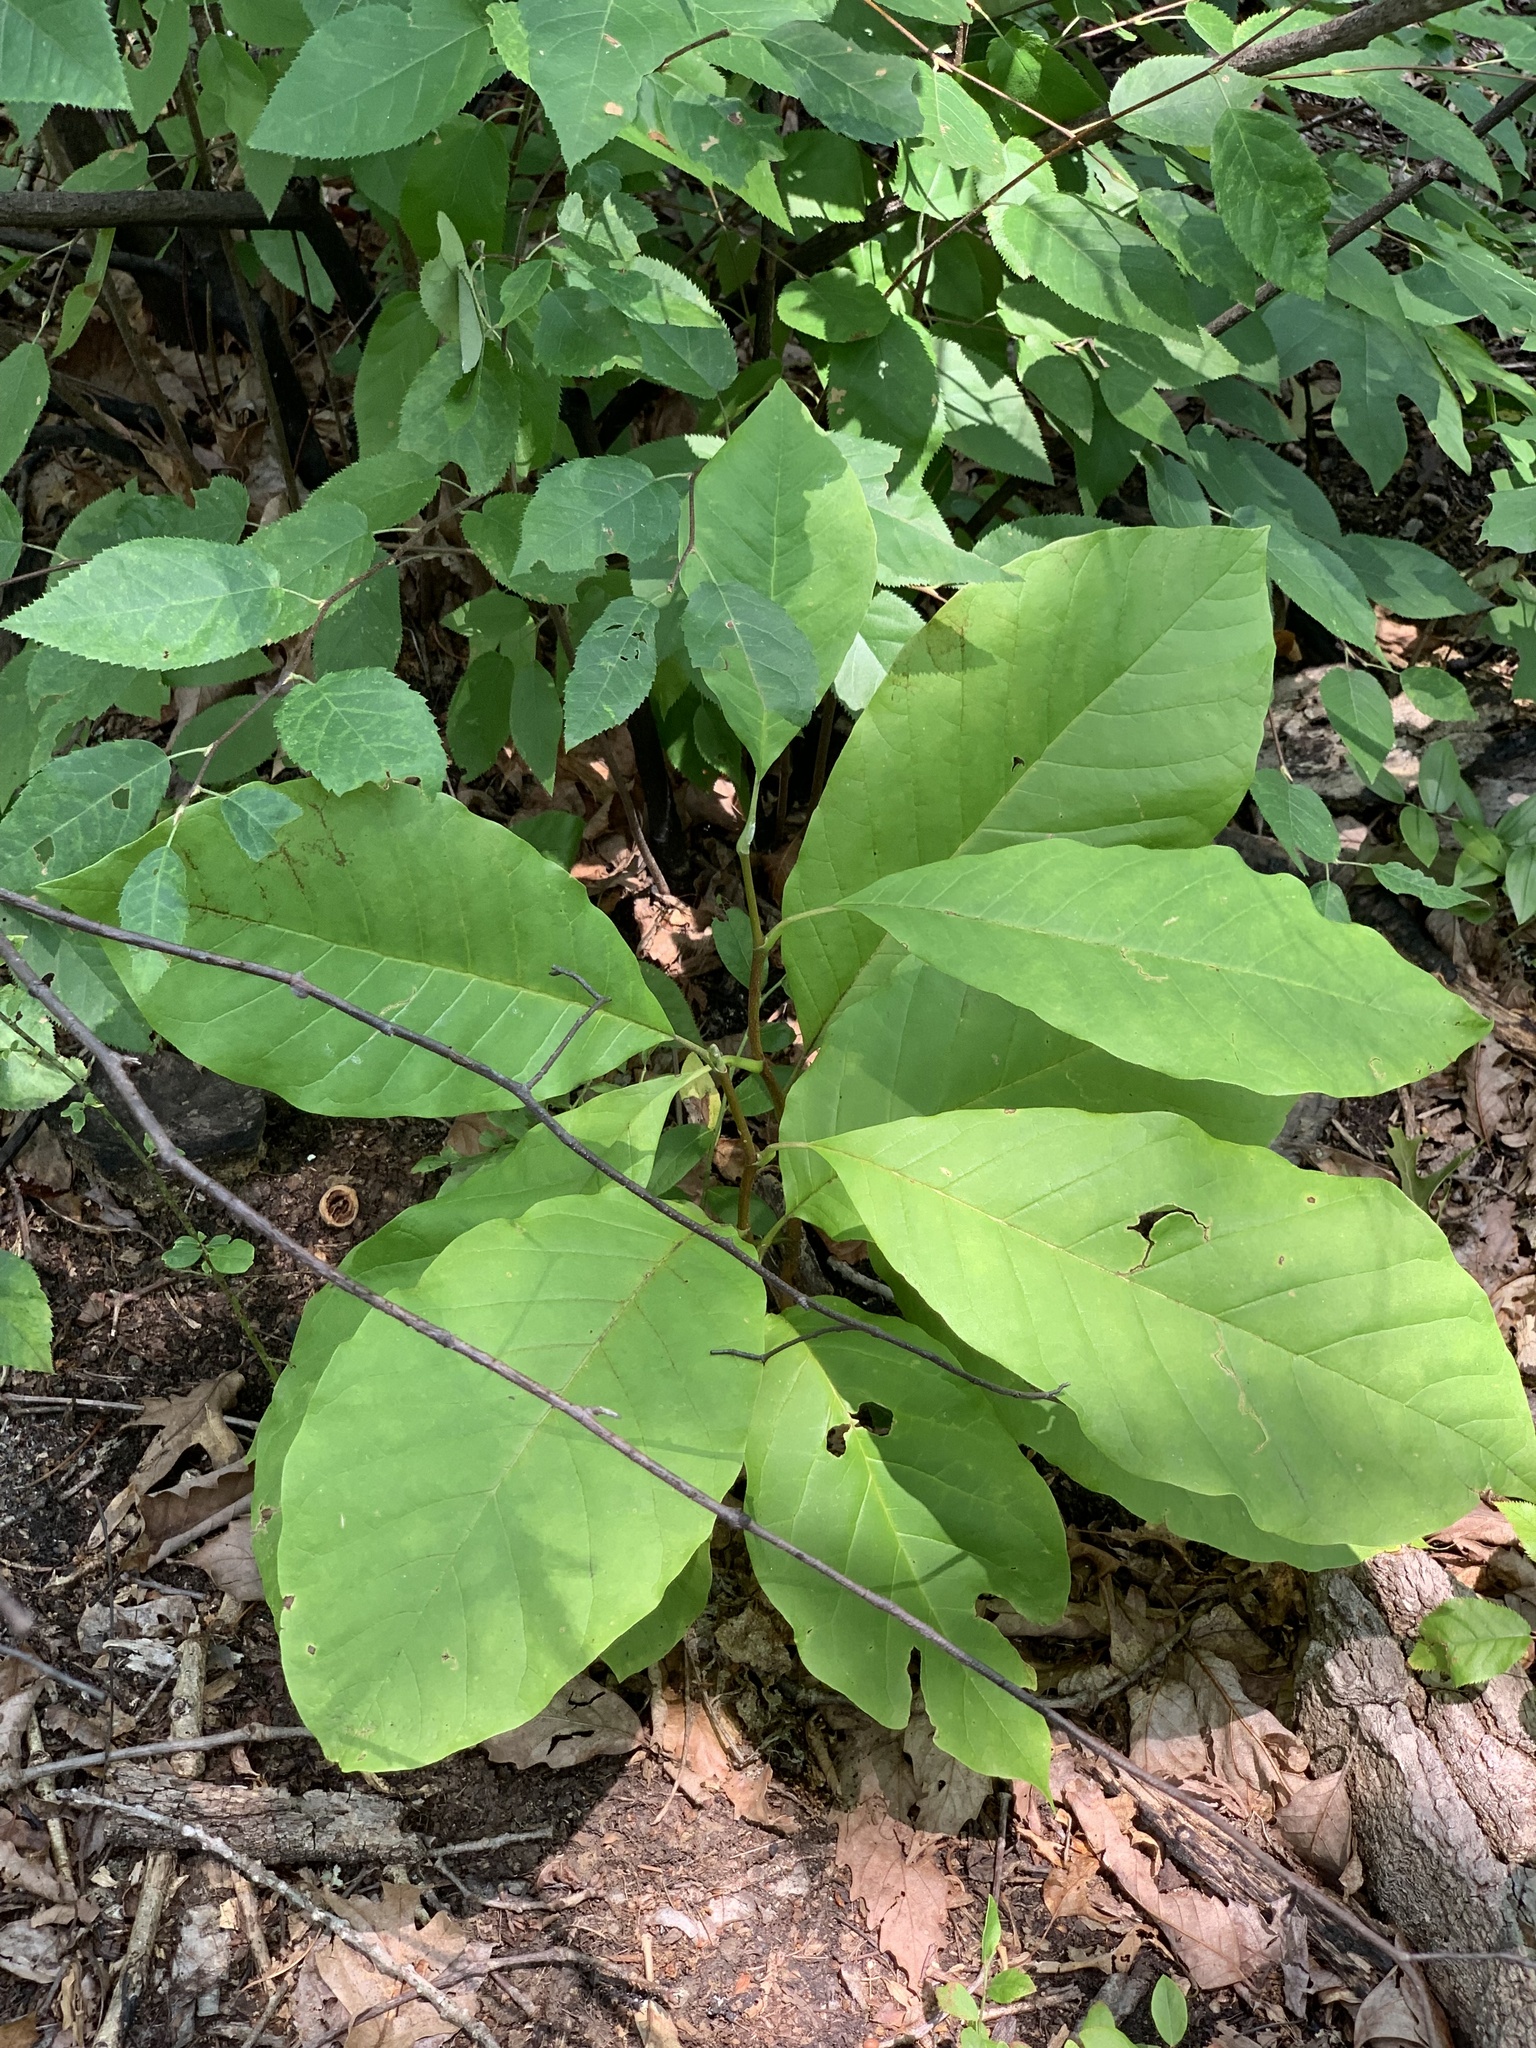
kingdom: Plantae
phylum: Tracheophyta
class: Magnoliopsida
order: Magnoliales
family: Magnoliaceae
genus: Magnolia
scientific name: Magnolia acuminata
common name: Cucumber magnolia
